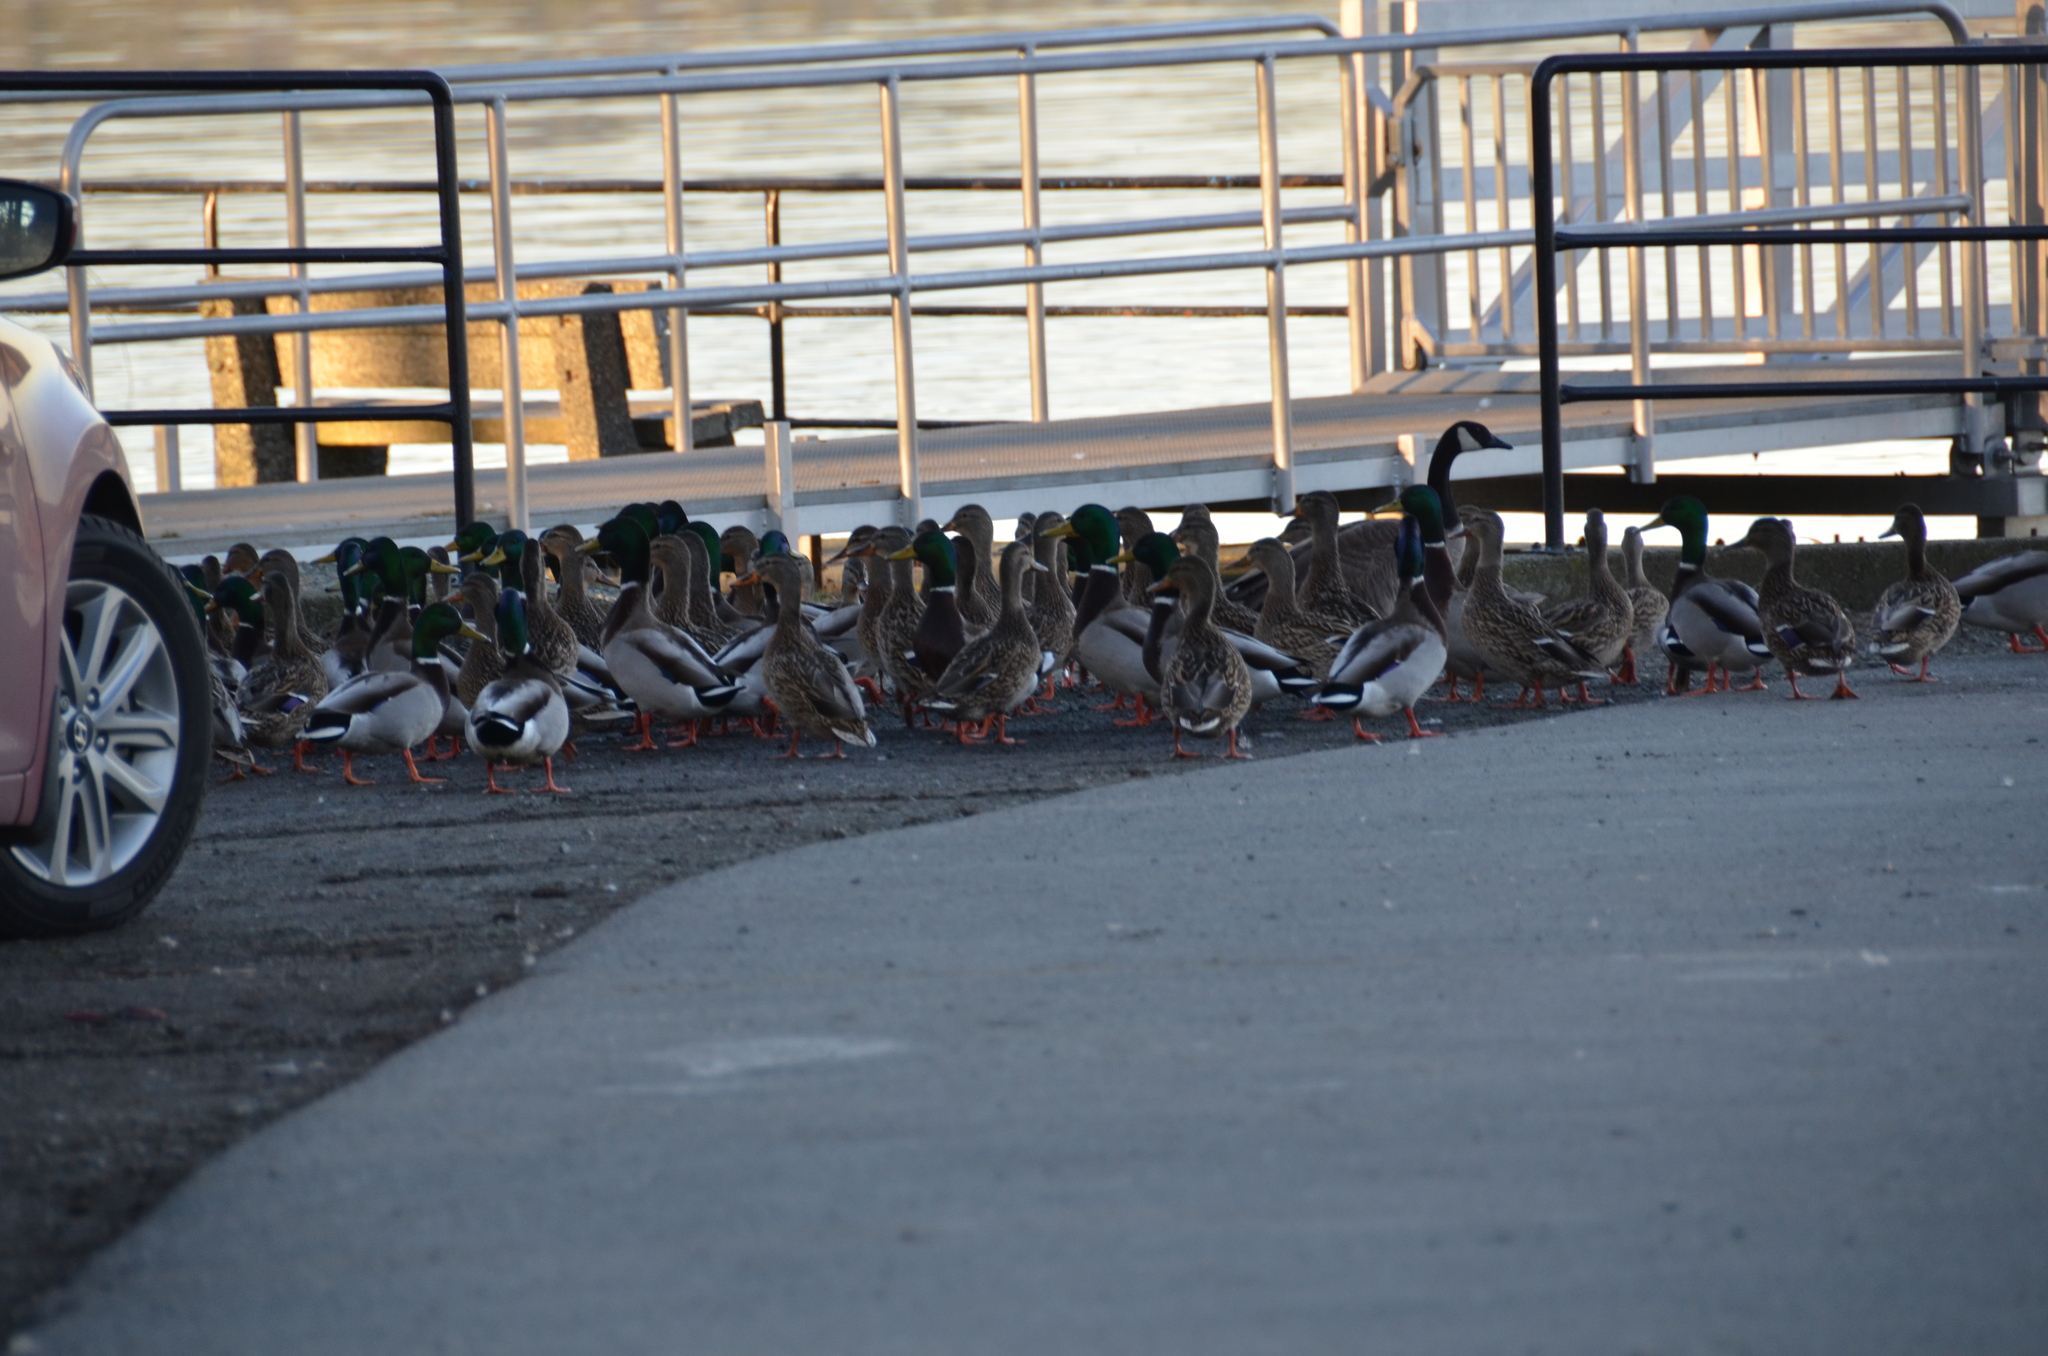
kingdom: Animalia
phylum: Chordata
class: Aves
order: Anseriformes
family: Anatidae
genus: Anas
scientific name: Anas platyrhynchos
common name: Mallard
